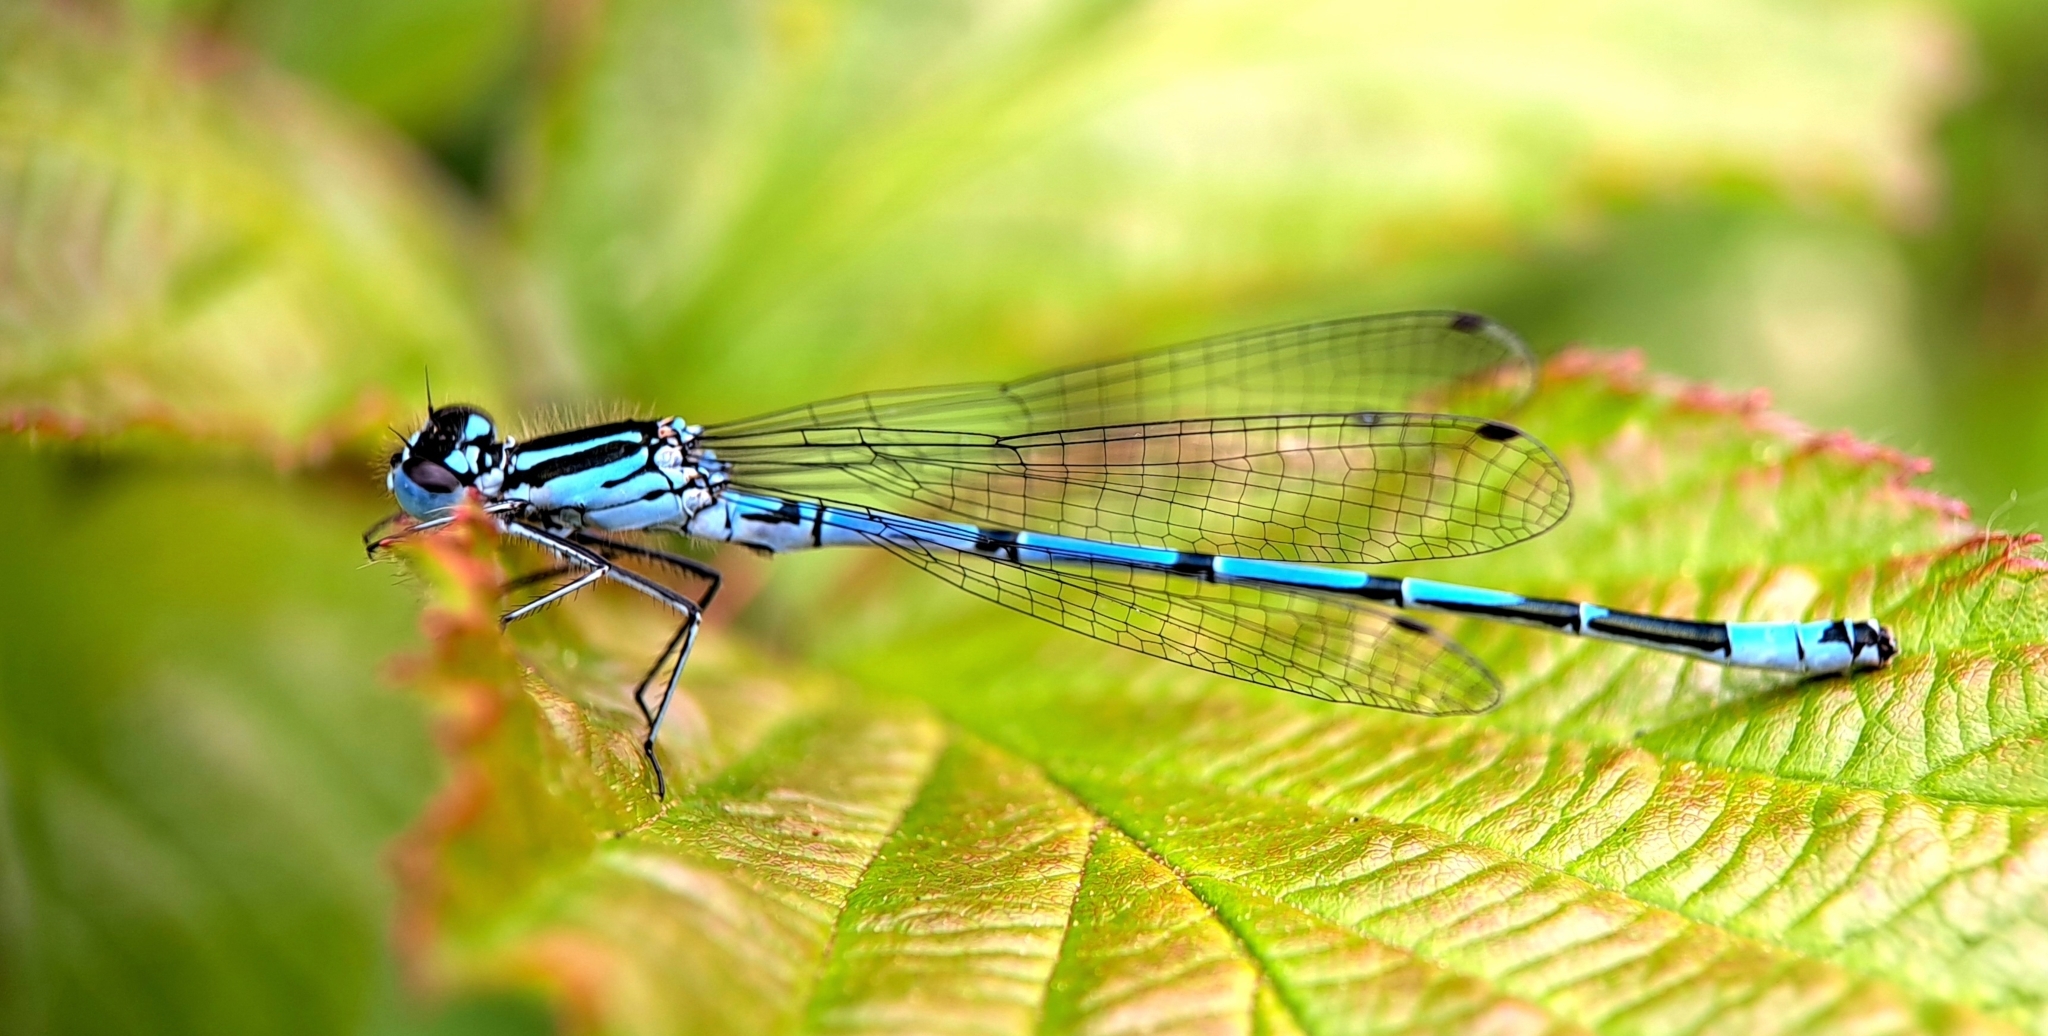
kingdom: Animalia
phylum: Arthropoda
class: Insecta
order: Odonata
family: Coenagrionidae
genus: Coenagrion
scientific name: Coenagrion puella
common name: Azure damselfly
